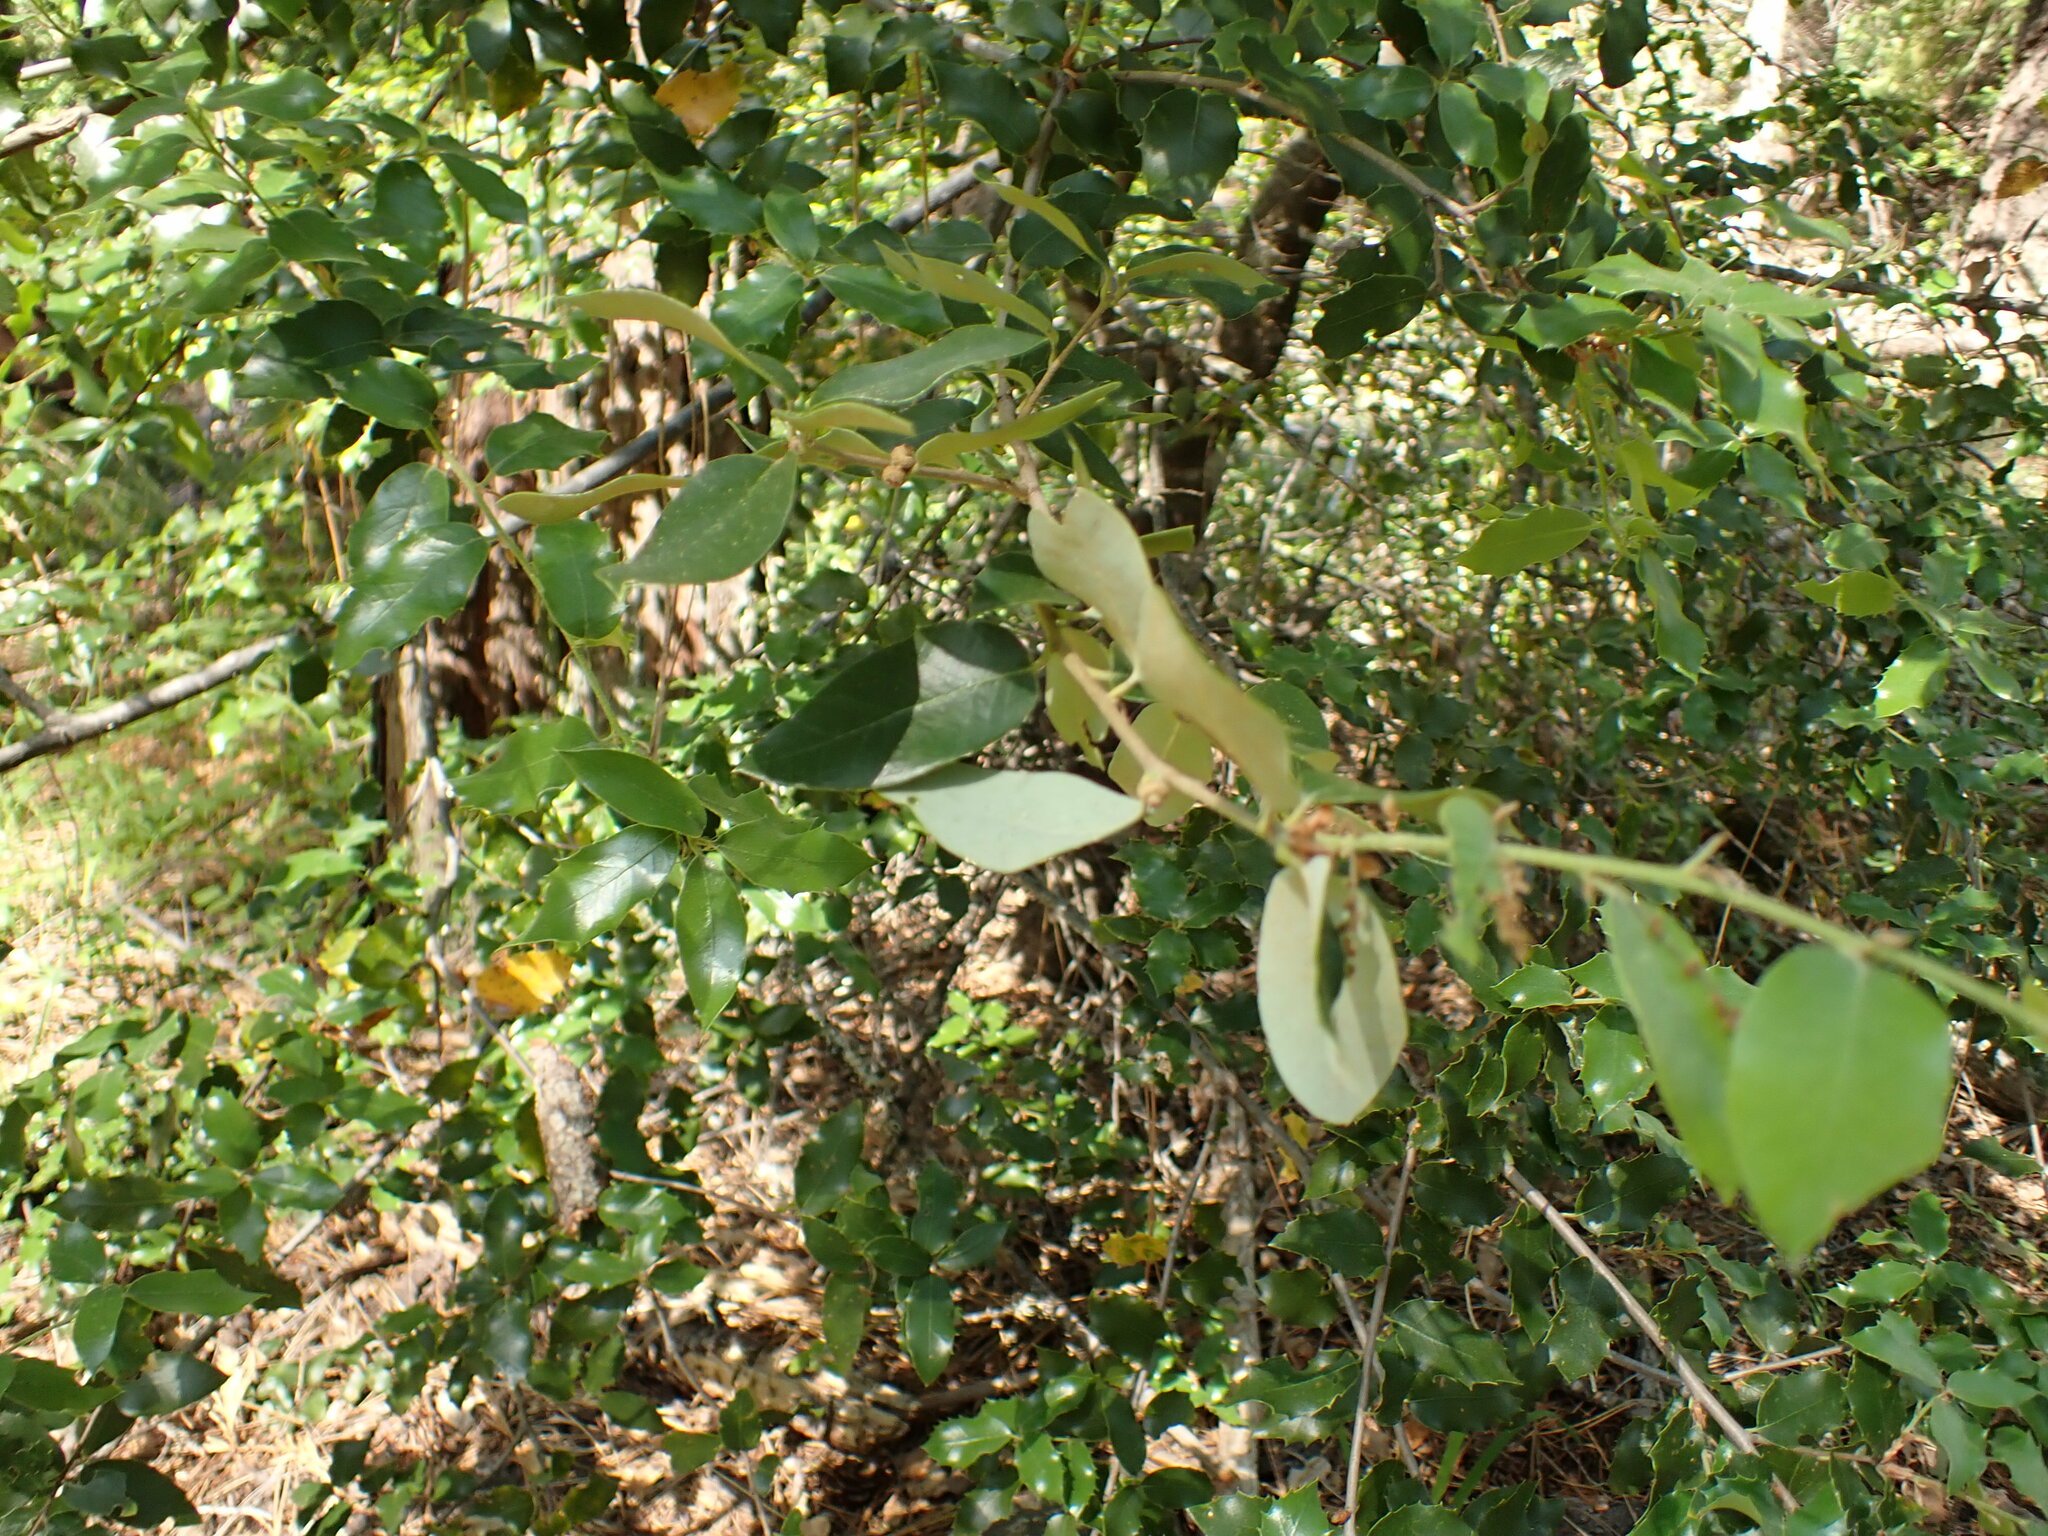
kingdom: Plantae
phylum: Tracheophyta
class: Magnoliopsida
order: Fagales
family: Fagaceae
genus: Quercus
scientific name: Quercus chrysolepis
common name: Canyon live oak
